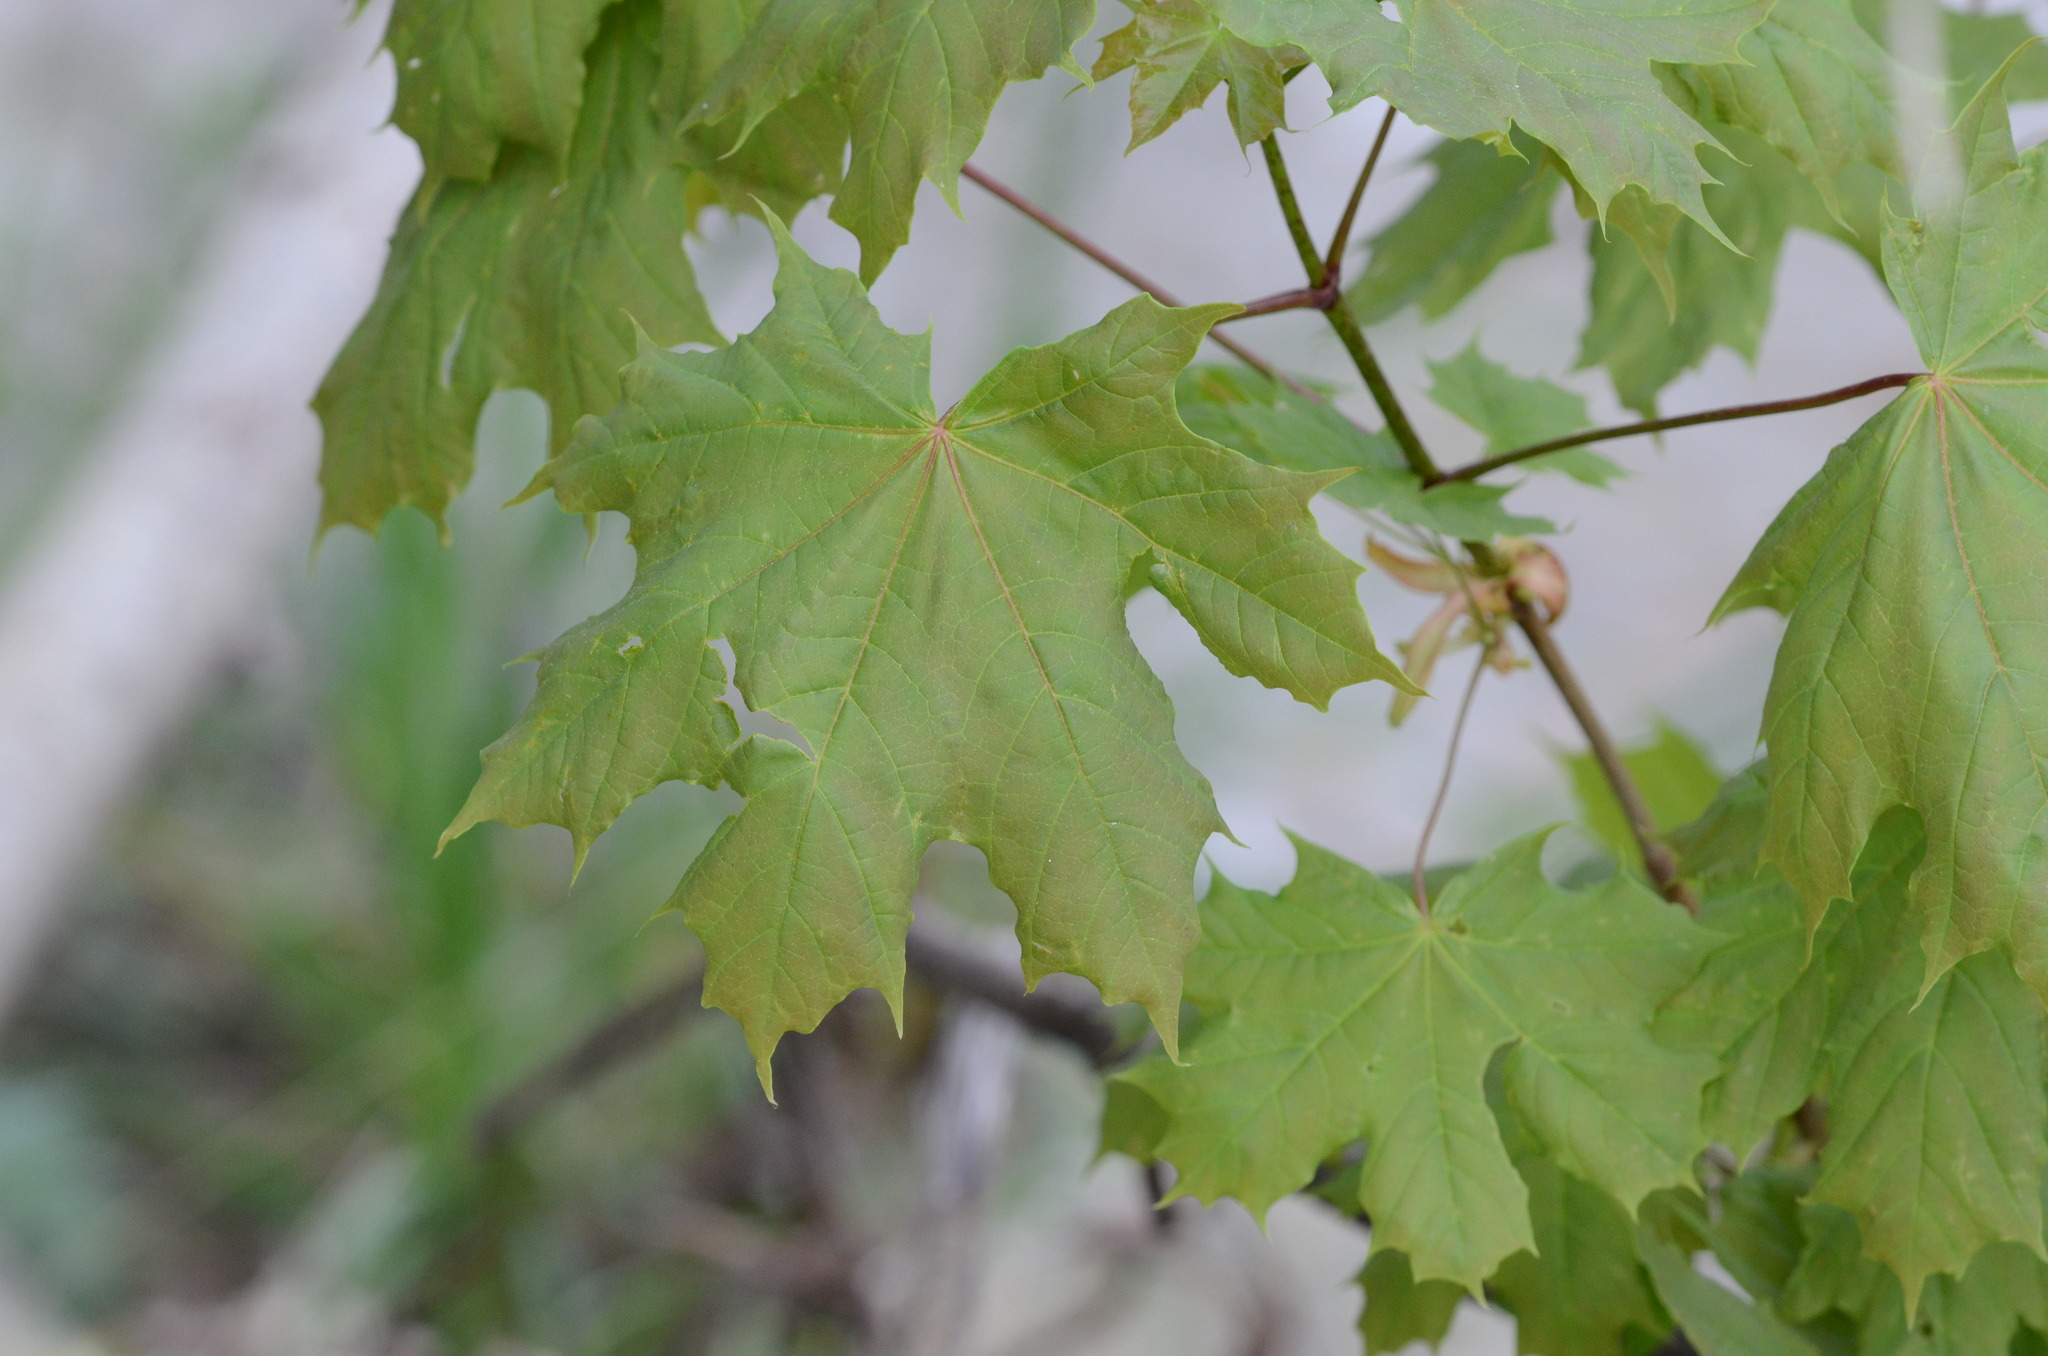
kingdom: Plantae
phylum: Tracheophyta
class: Magnoliopsida
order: Sapindales
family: Sapindaceae
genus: Acer
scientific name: Acer platanoides
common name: Norway maple
